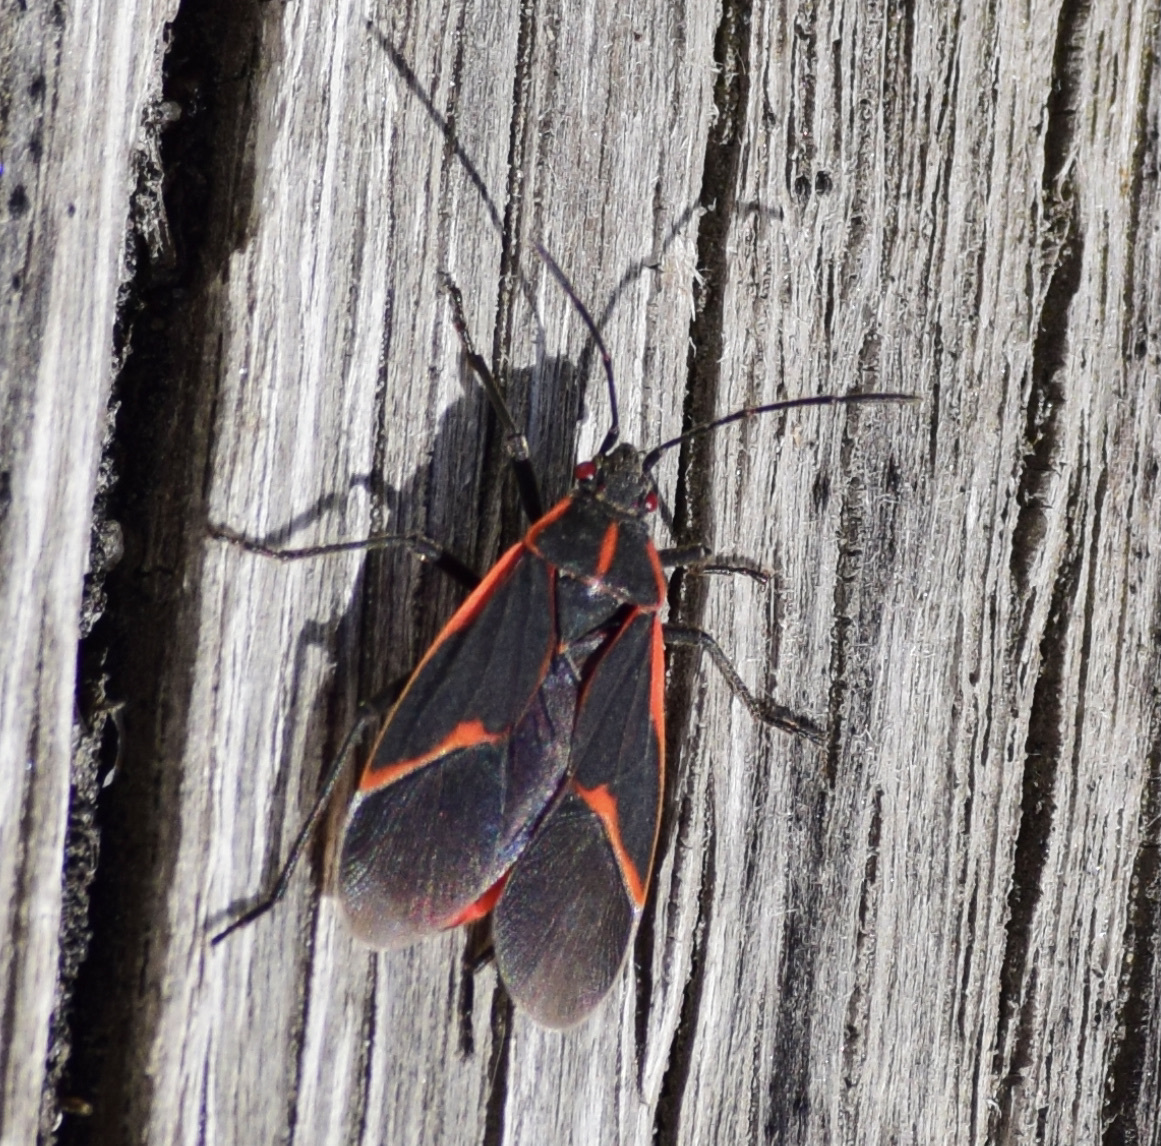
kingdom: Animalia
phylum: Arthropoda
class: Insecta
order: Hemiptera
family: Rhopalidae
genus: Boisea
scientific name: Boisea trivittata
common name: Boxelder bug
